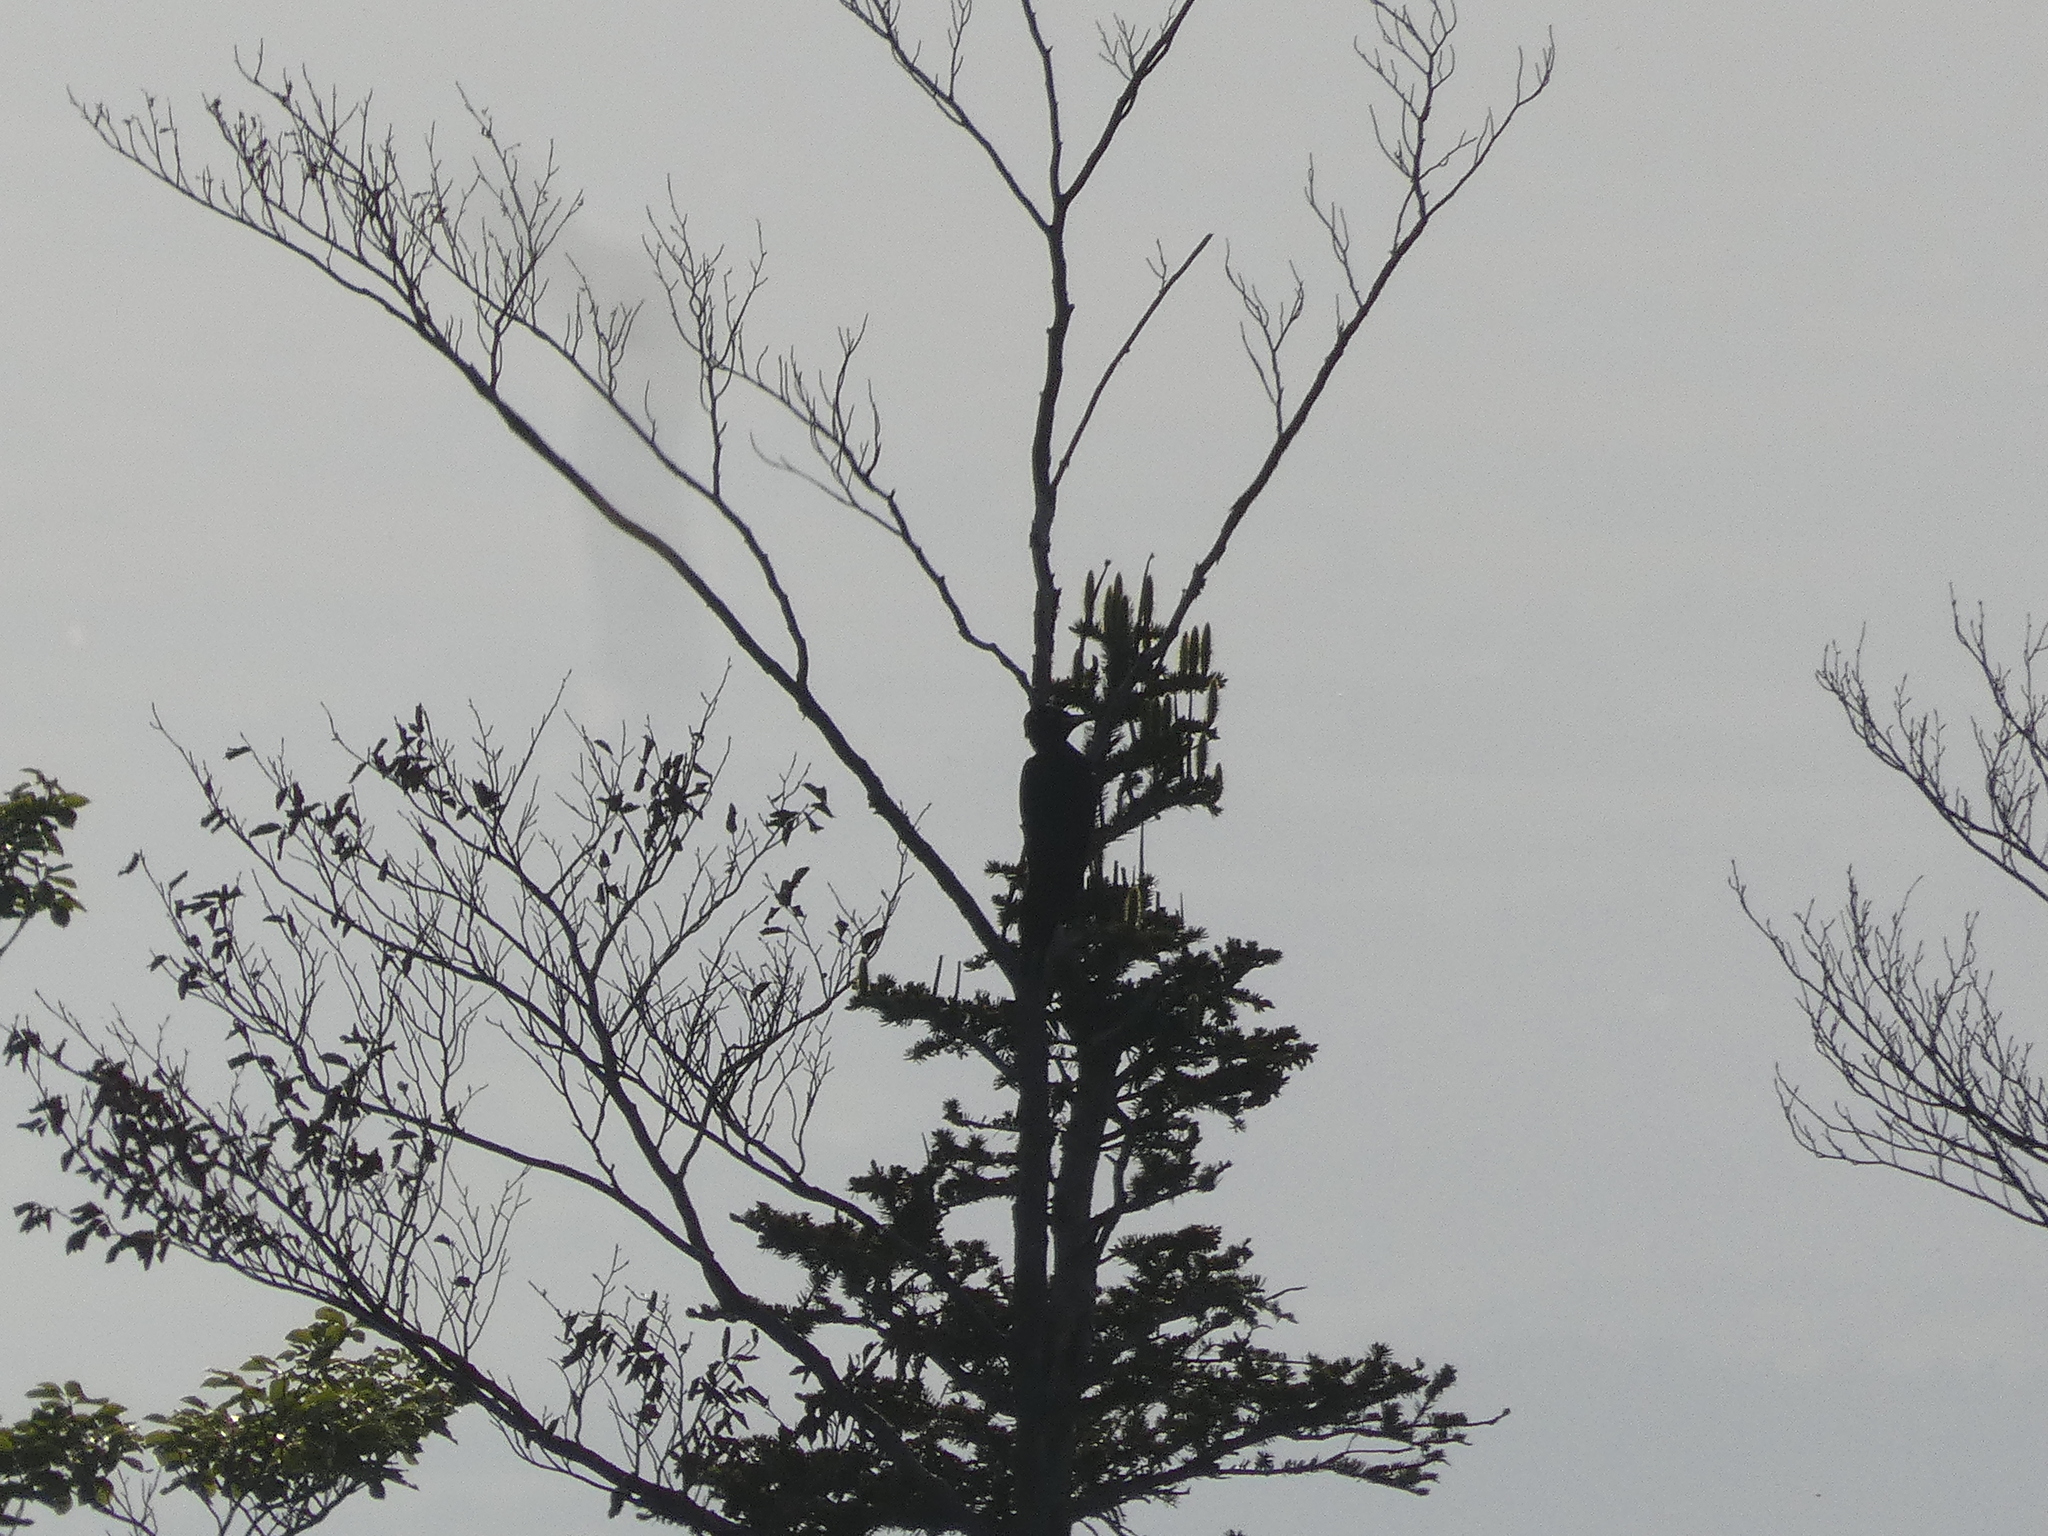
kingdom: Animalia
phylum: Chordata
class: Aves
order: Piciformes
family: Picidae
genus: Dryocopus
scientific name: Dryocopus martius
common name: Black woodpecker
